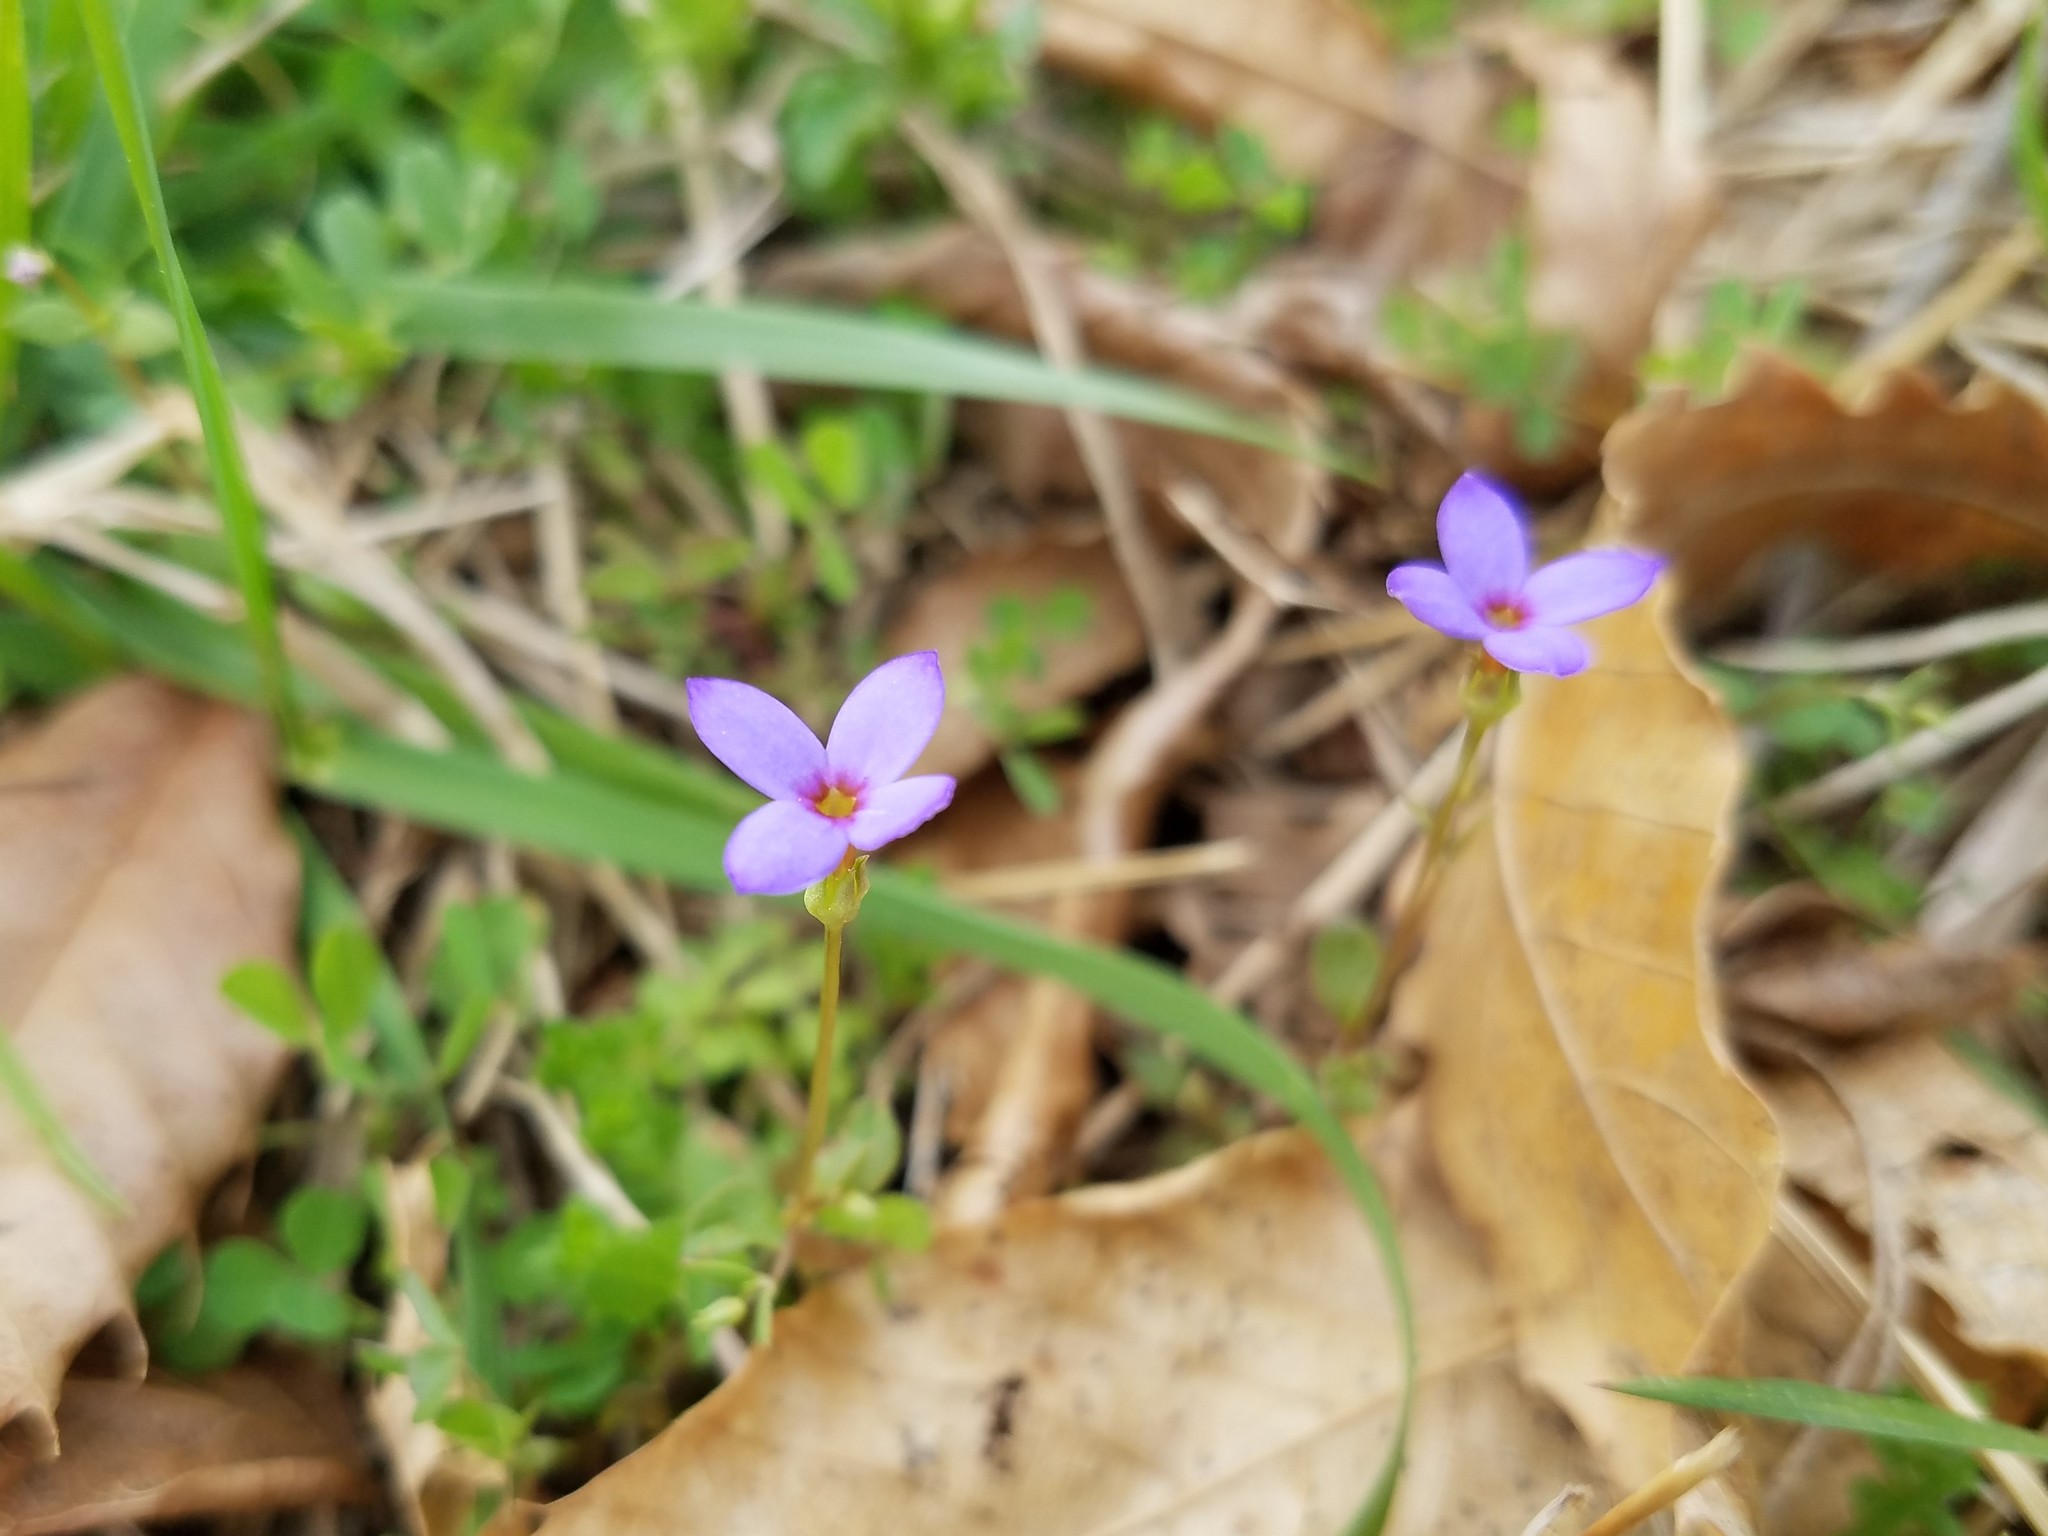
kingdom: Plantae
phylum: Tracheophyta
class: Magnoliopsida
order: Gentianales
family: Rubiaceae
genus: Houstonia
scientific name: Houstonia pusilla
